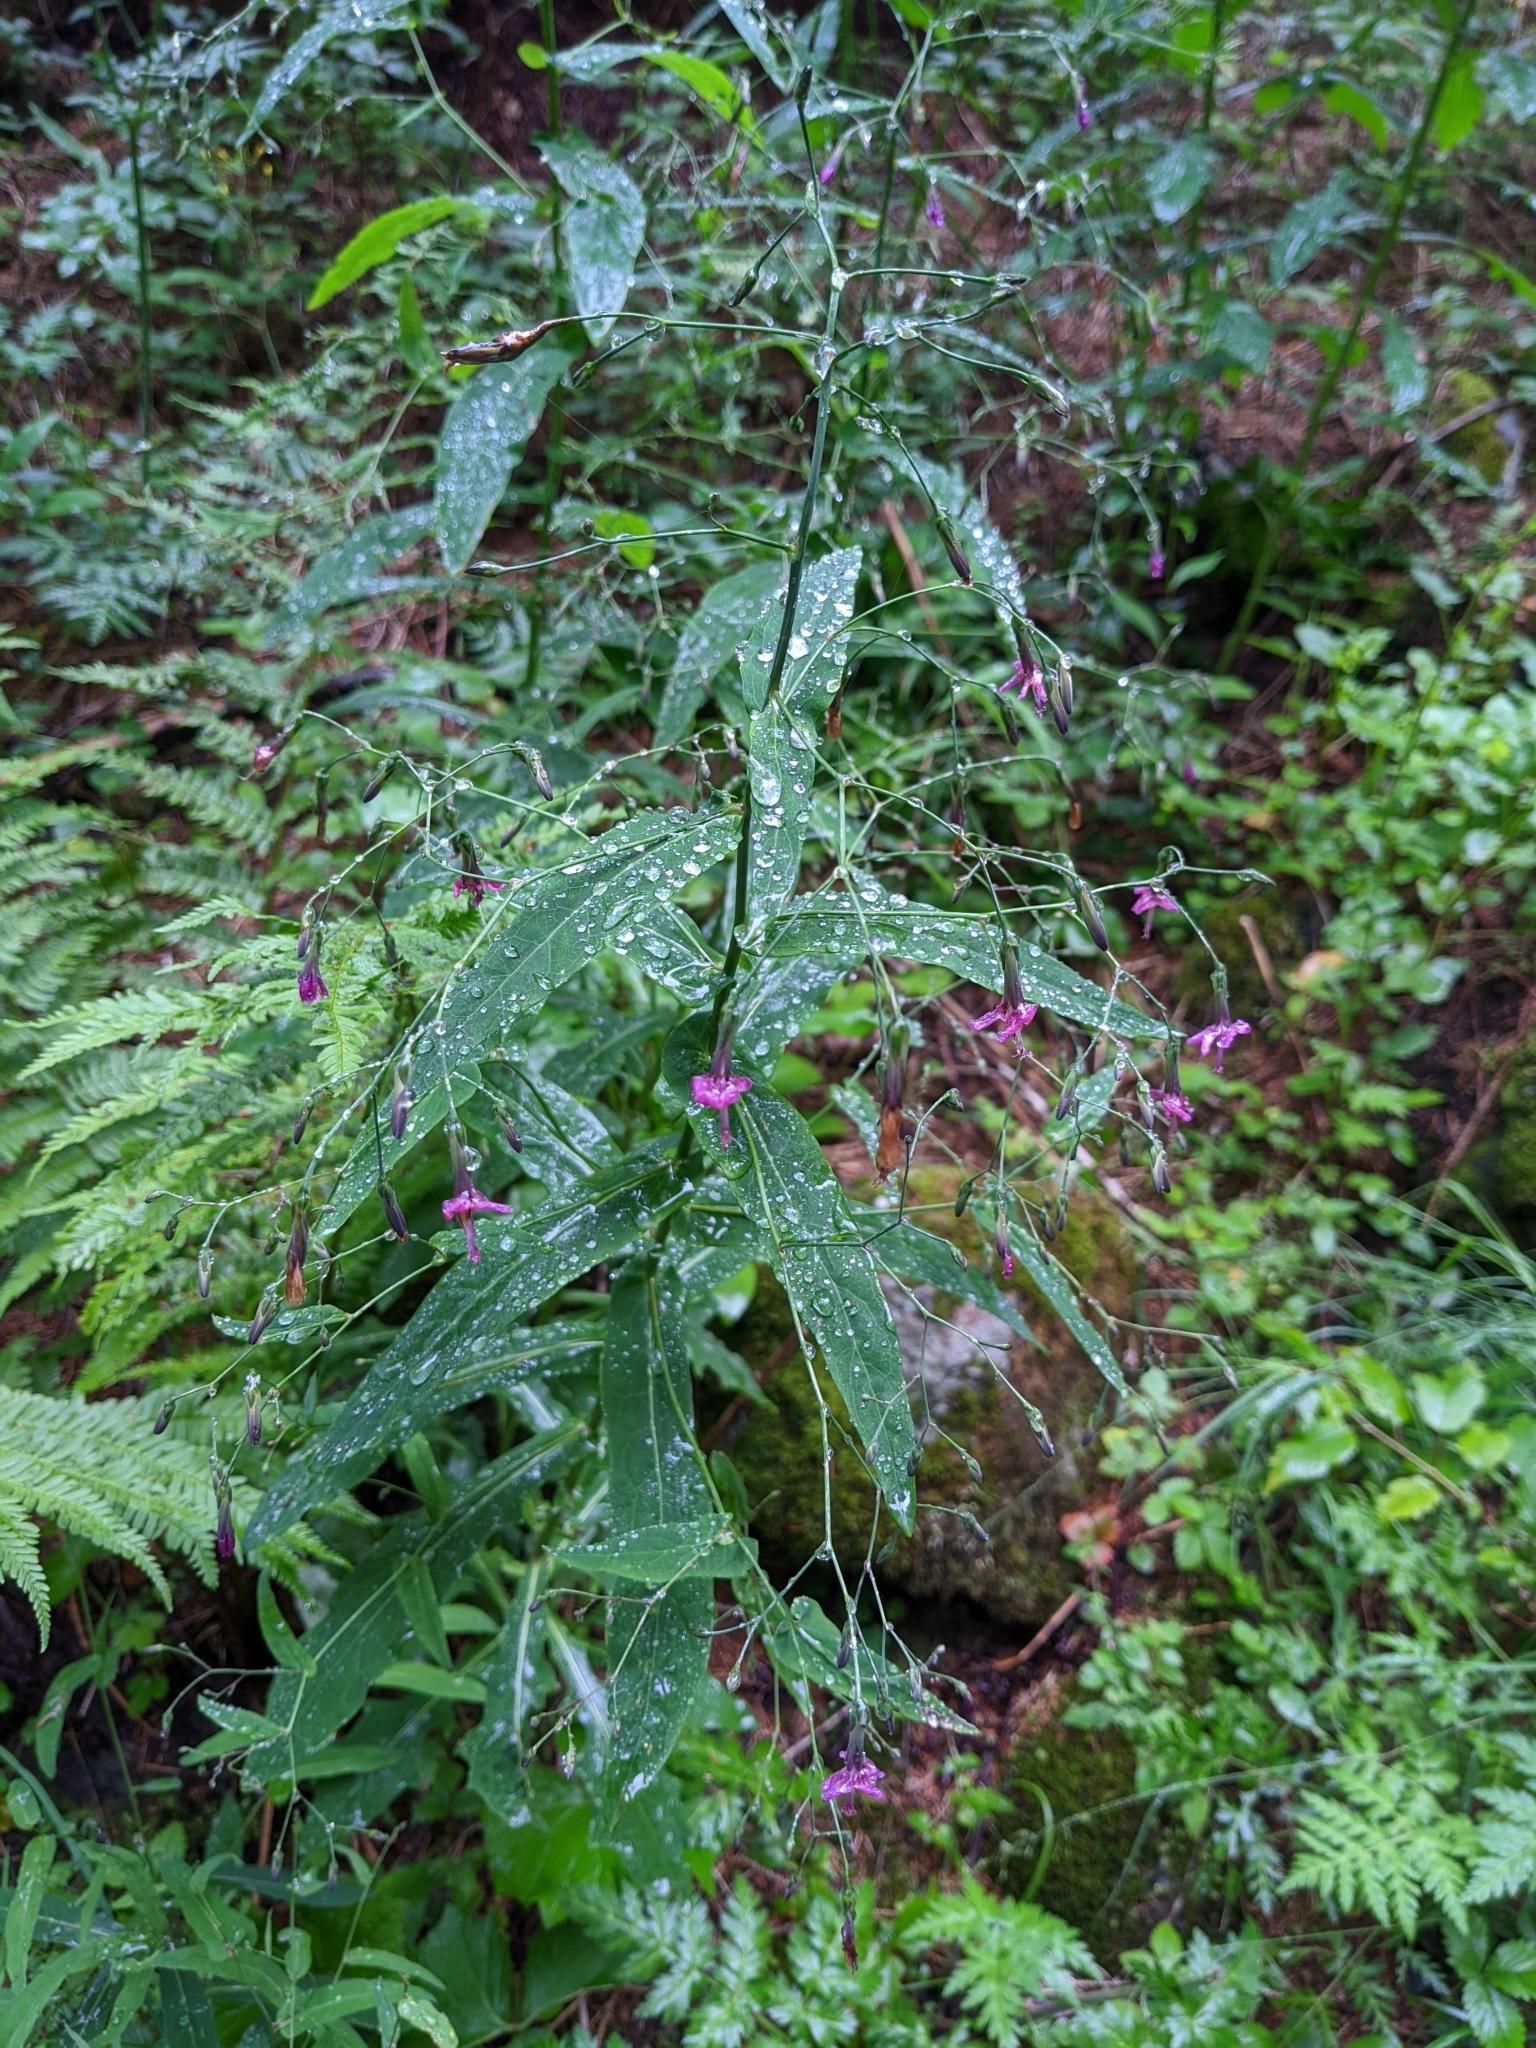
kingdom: Plantae
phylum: Tracheophyta
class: Magnoliopsida
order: Asterales
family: Asteraceae
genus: Prenanthes
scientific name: Prenanthes purpurea
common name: Purple lettuce
